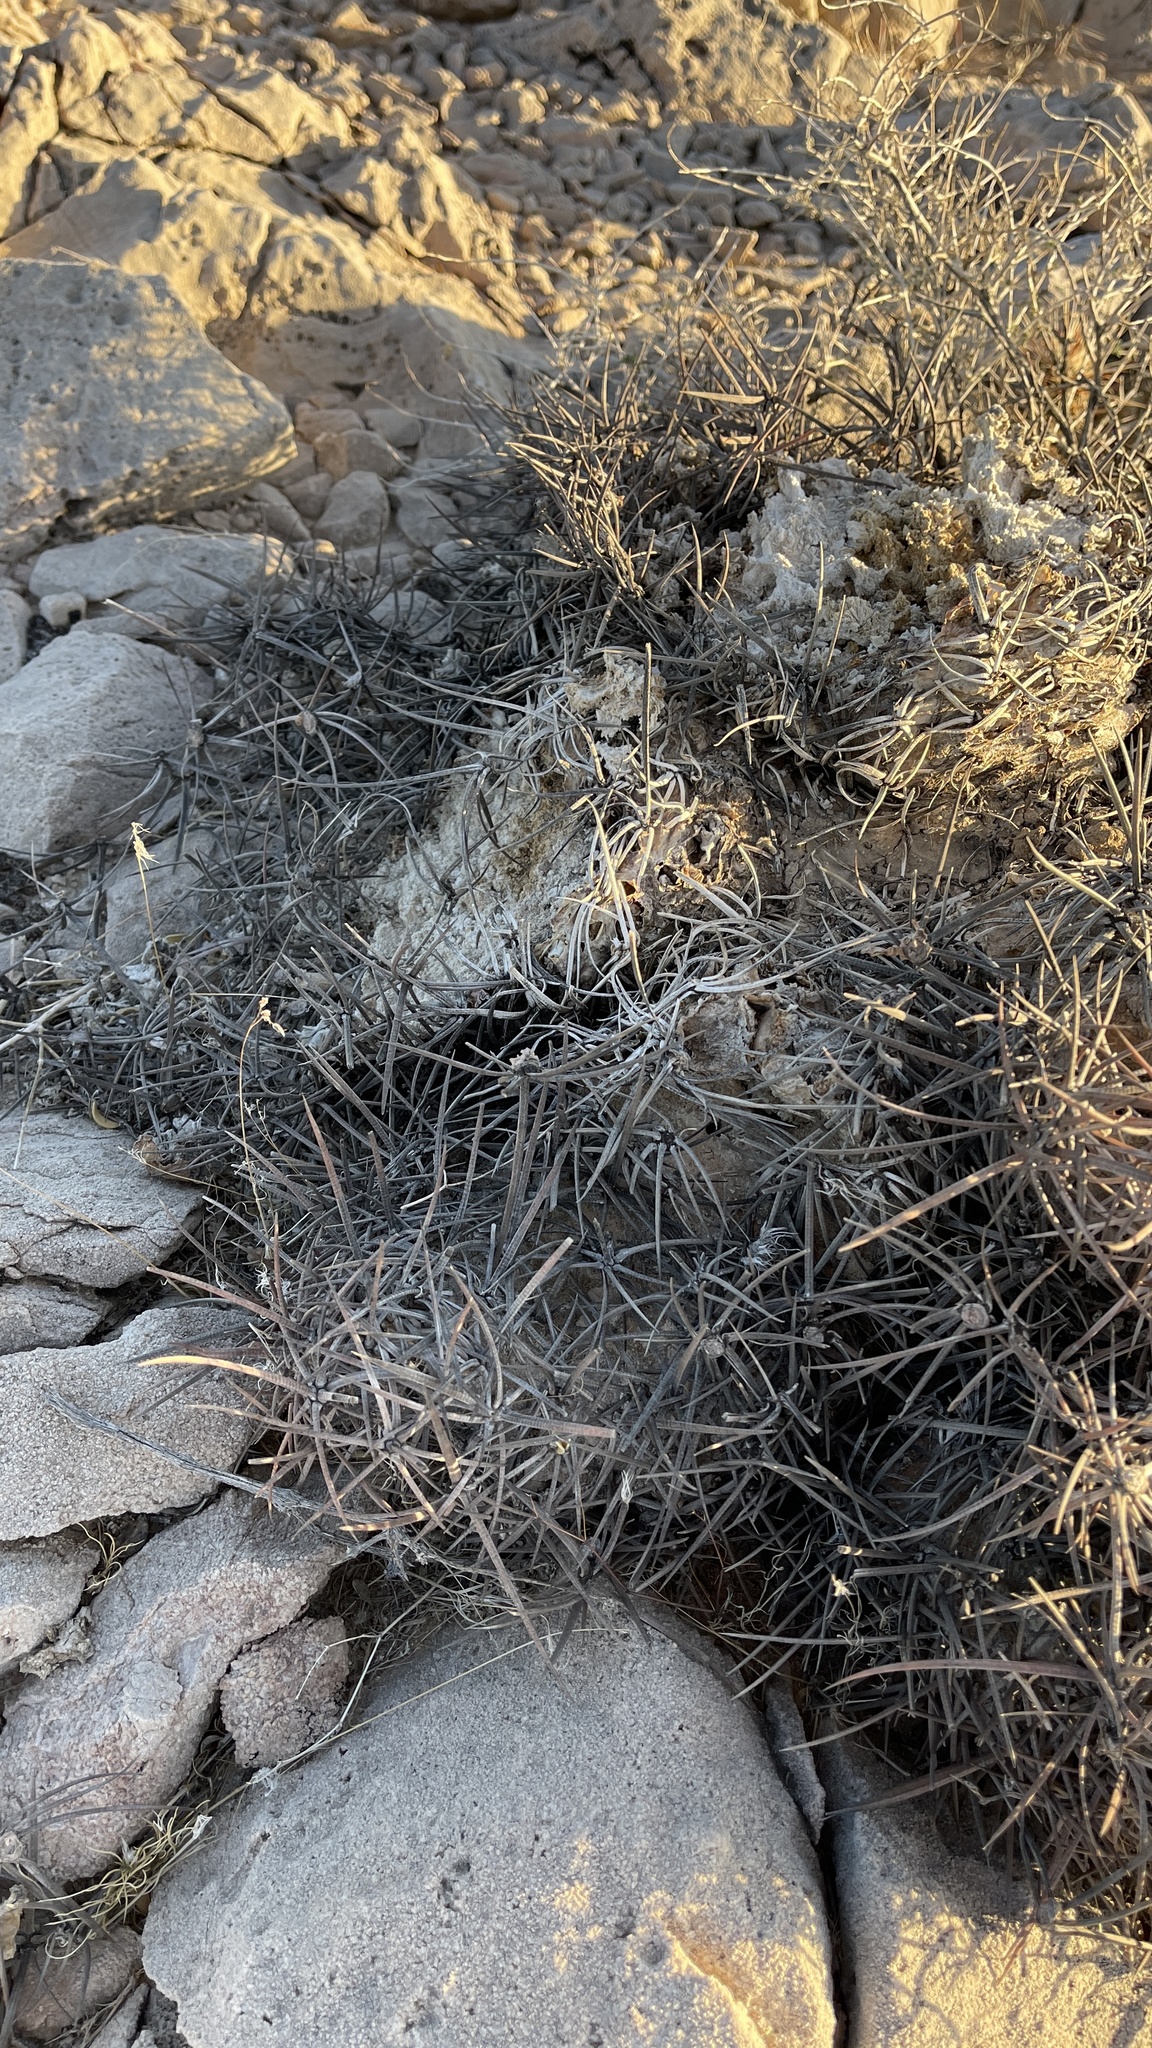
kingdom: Plantae
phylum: Tracheophyta
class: Magnoliopsida
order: Caryophyllales
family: Cactaceae
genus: Echinocactus
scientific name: Echinocactus polycephalus
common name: Cottontop cactus
